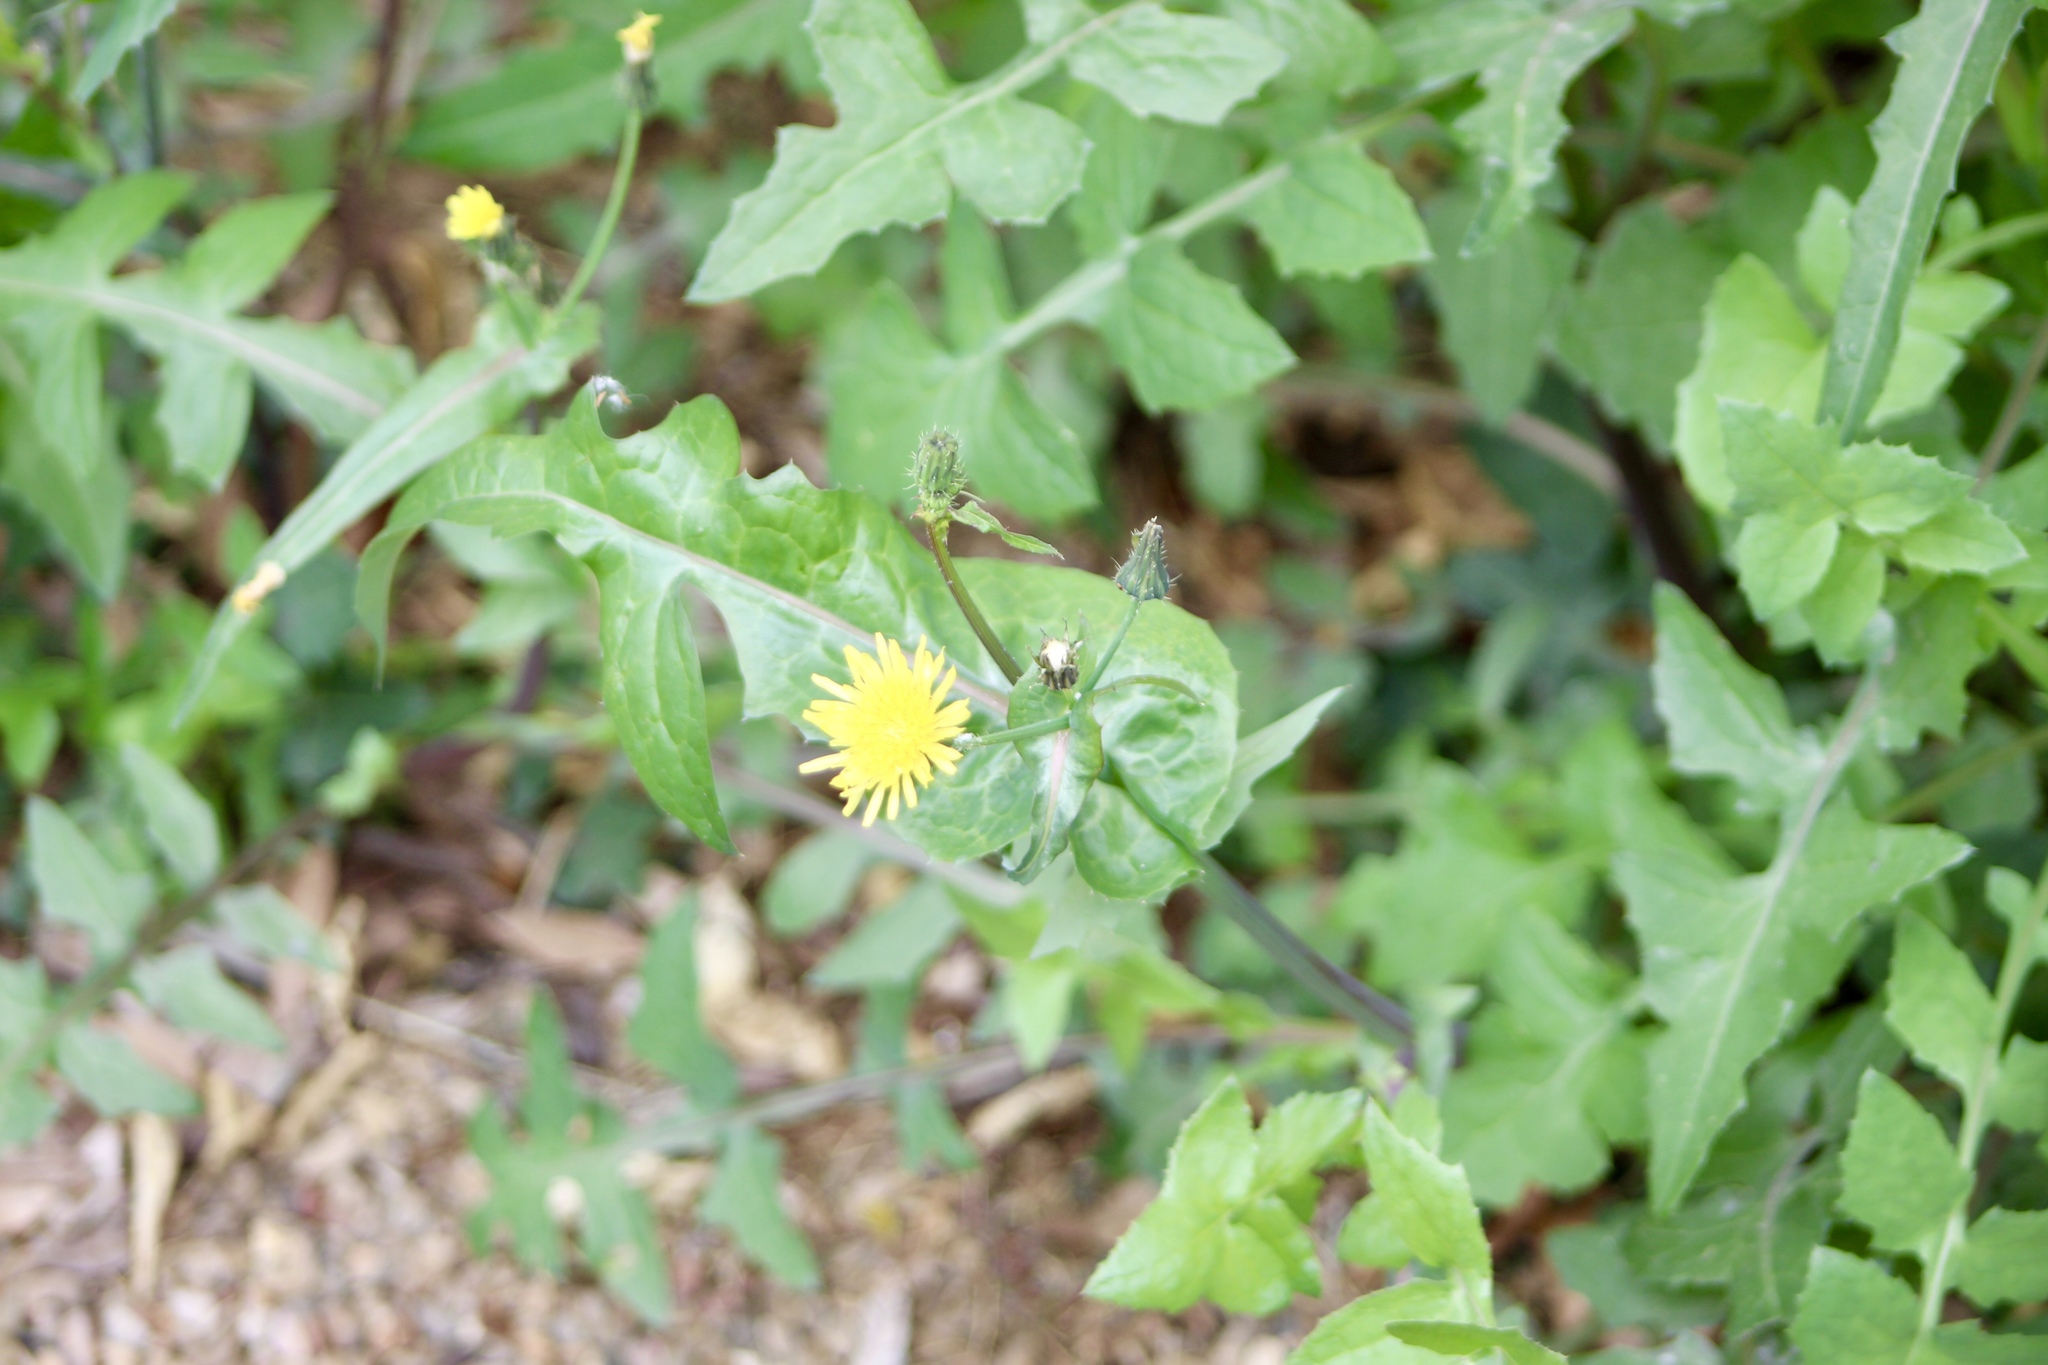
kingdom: Plantae
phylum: Tracheophyta
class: Magnoliopsida
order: Asterales
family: Asteraceae
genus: Sonchus
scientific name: Sonchus oleraceus
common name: Common sowthistle
